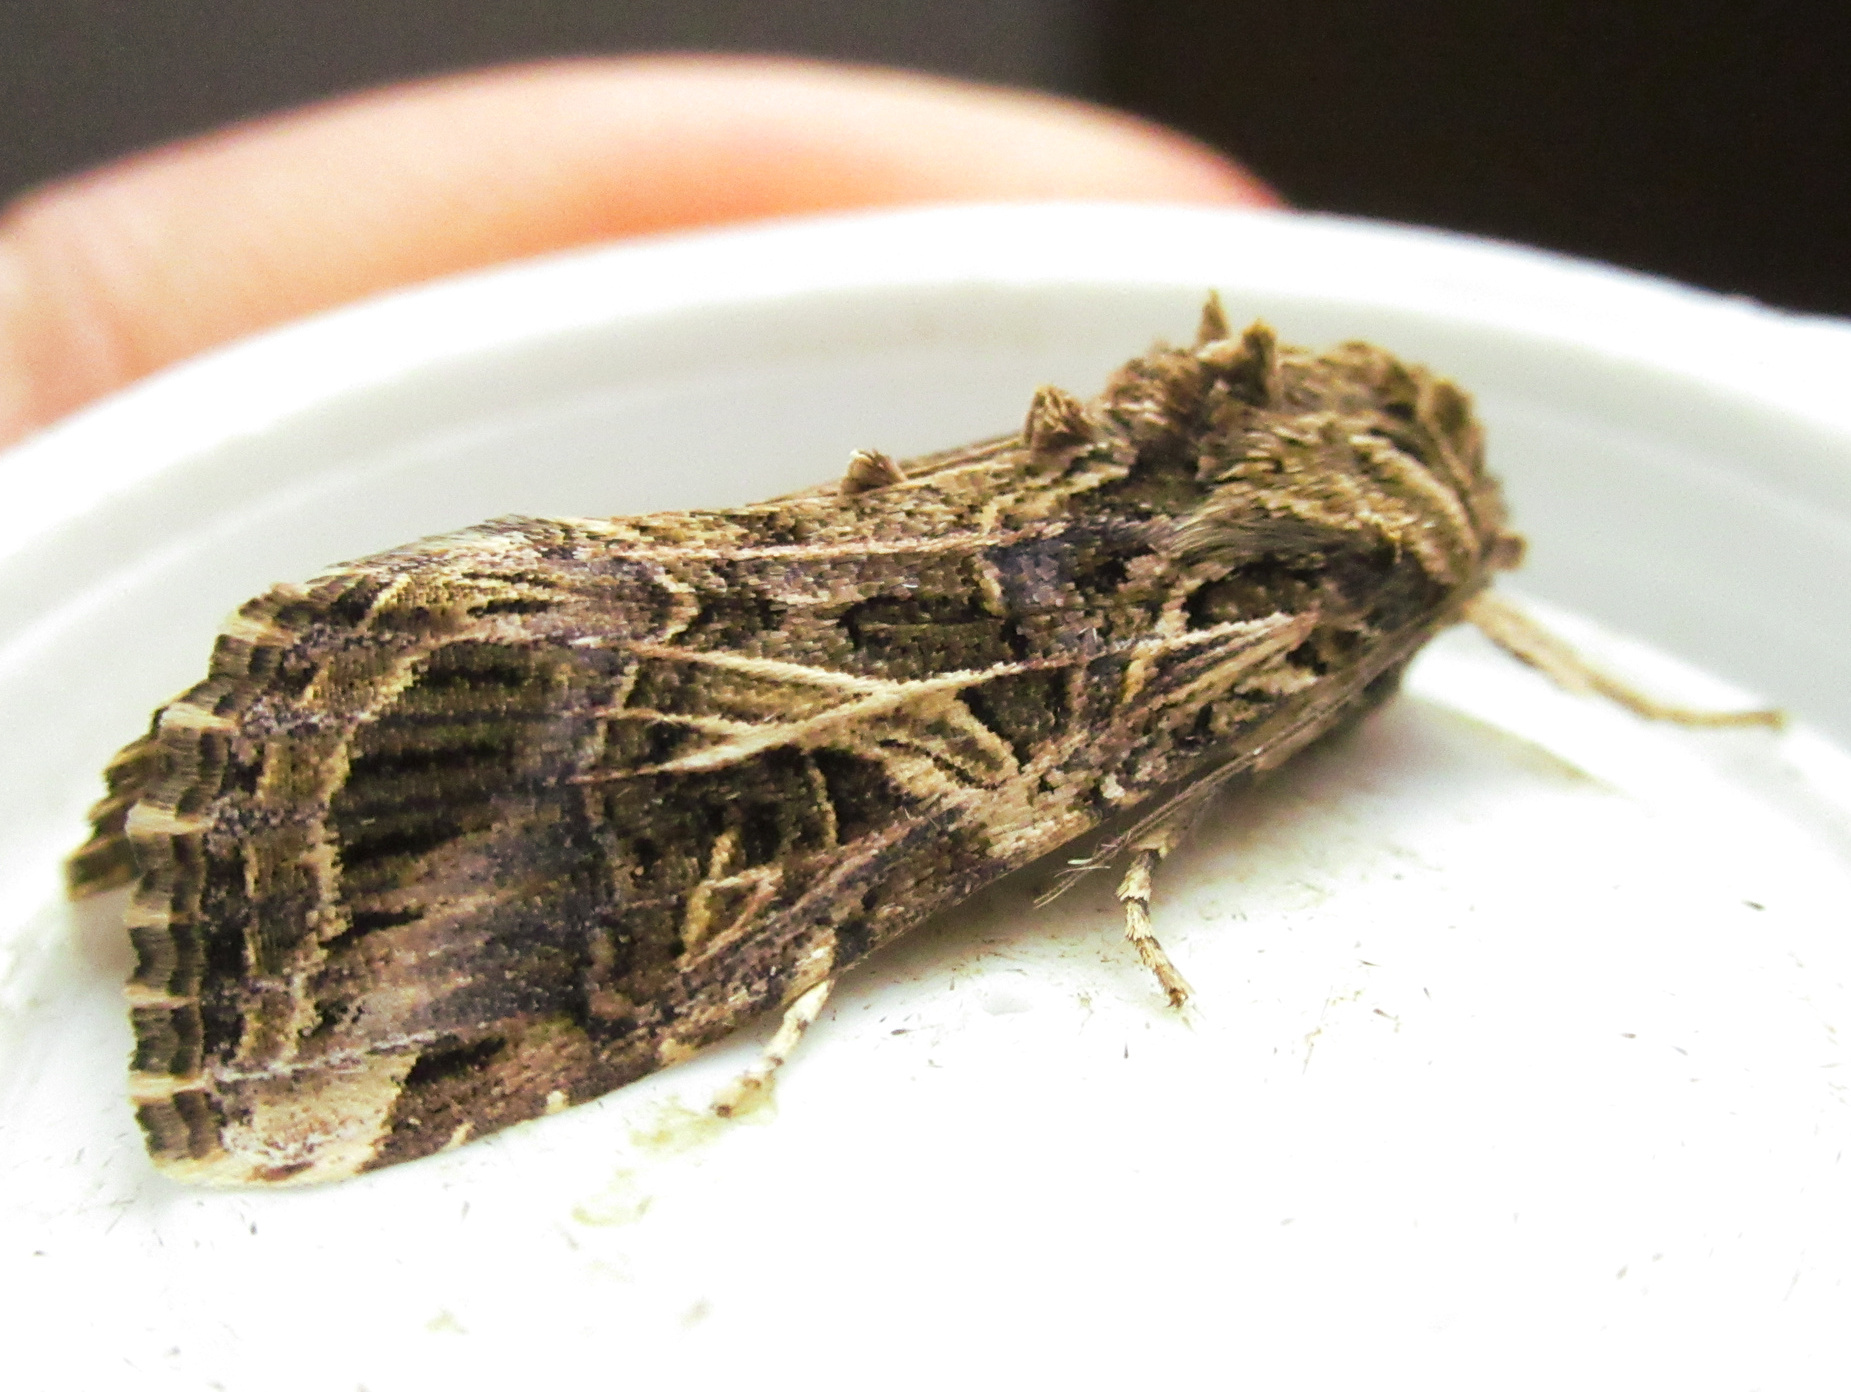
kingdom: Animalia
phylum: Arthropoda
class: Insecta
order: Lepidoptera
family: Noctuidae
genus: Spodoptera
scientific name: Spodoptera litura
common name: Asian cotton leafworm
